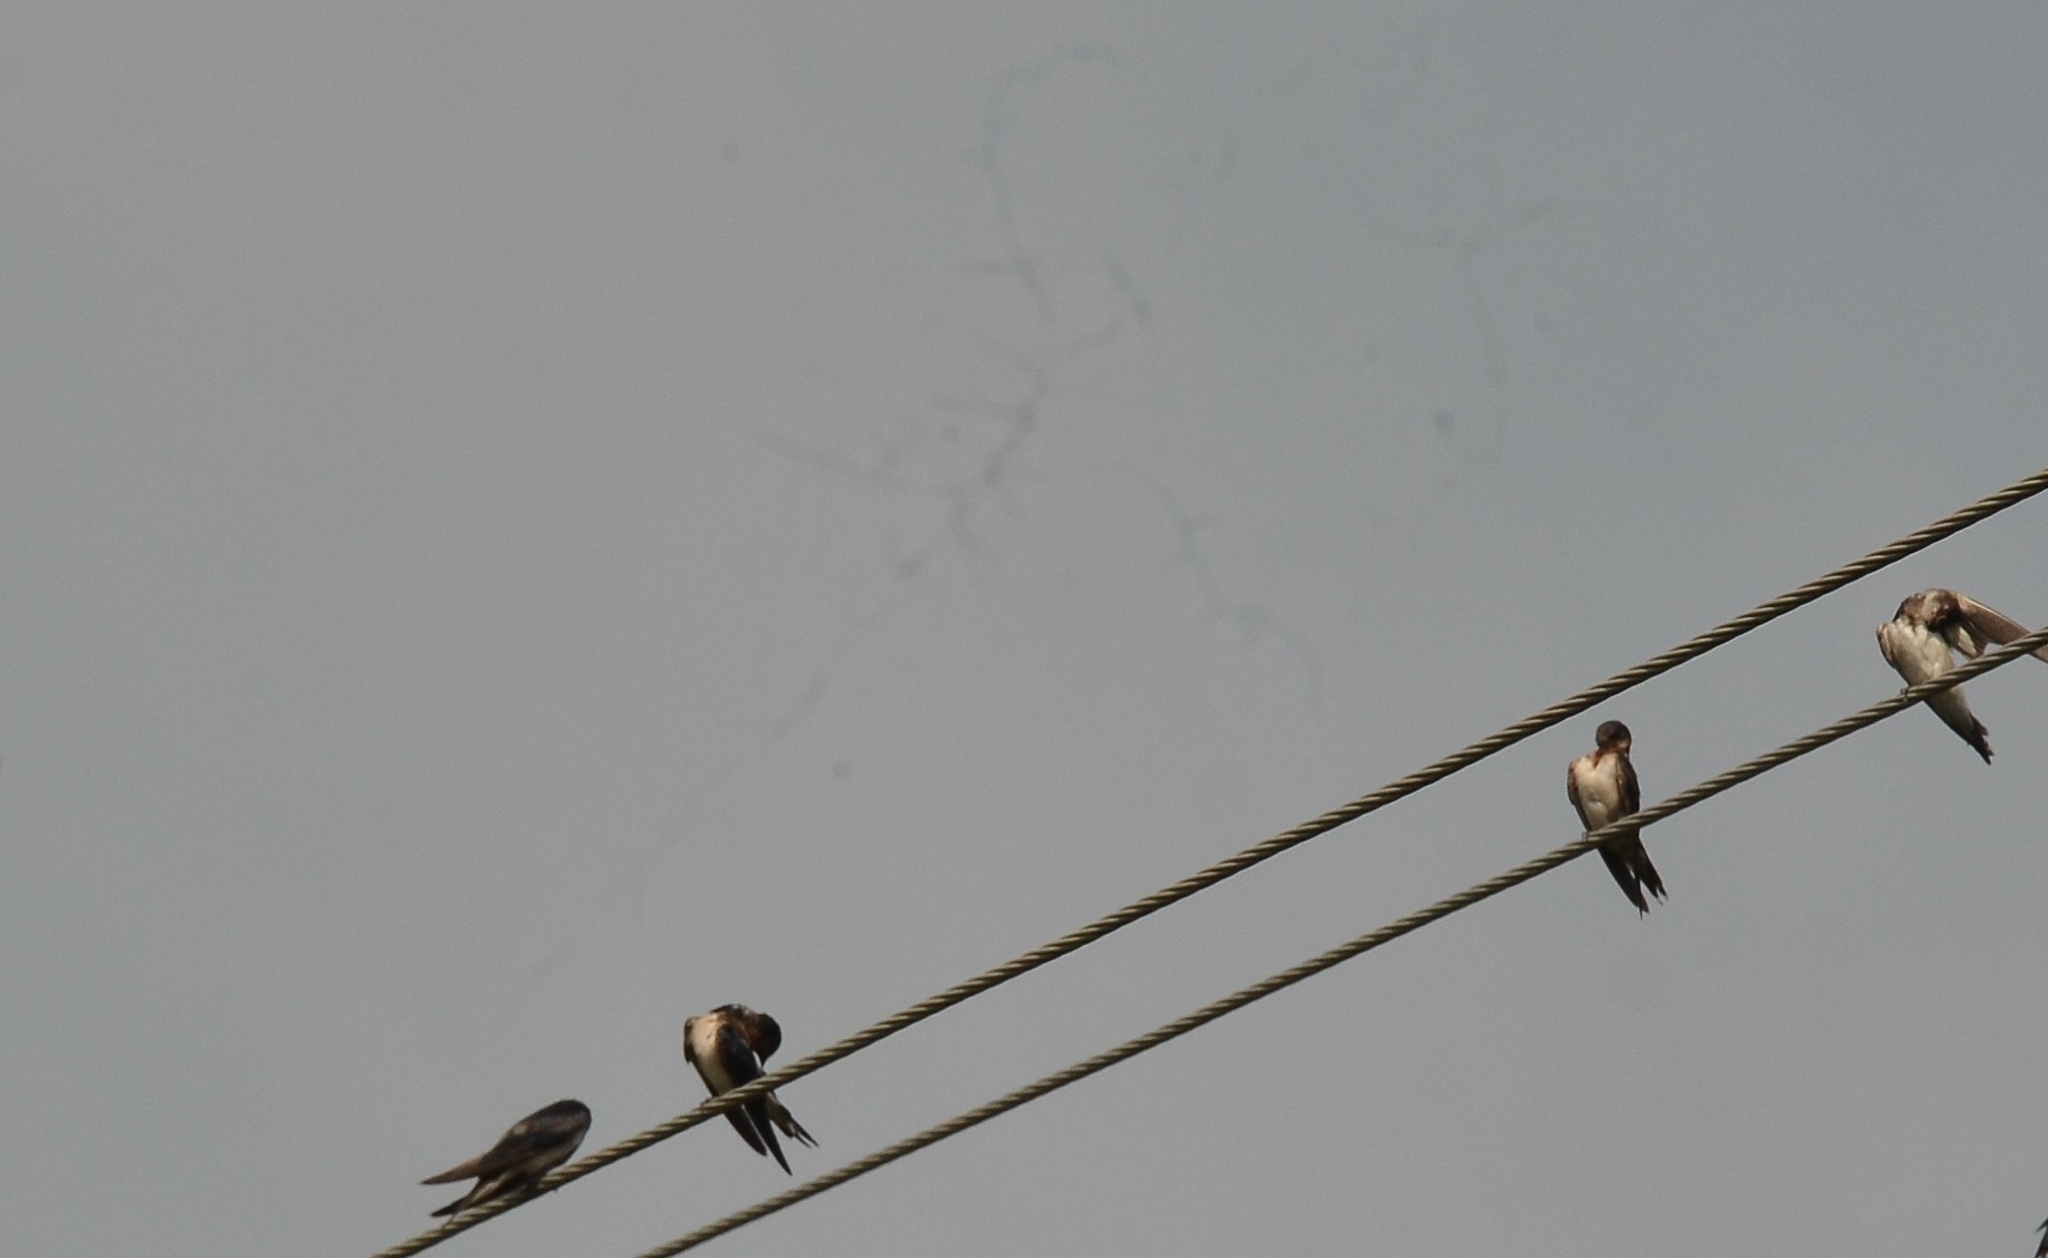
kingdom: Animalia
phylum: Chordata
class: Aves
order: Passeriformes
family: Hirundinidae
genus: Hirundo
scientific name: Hirundo rustica
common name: Barn swallow
